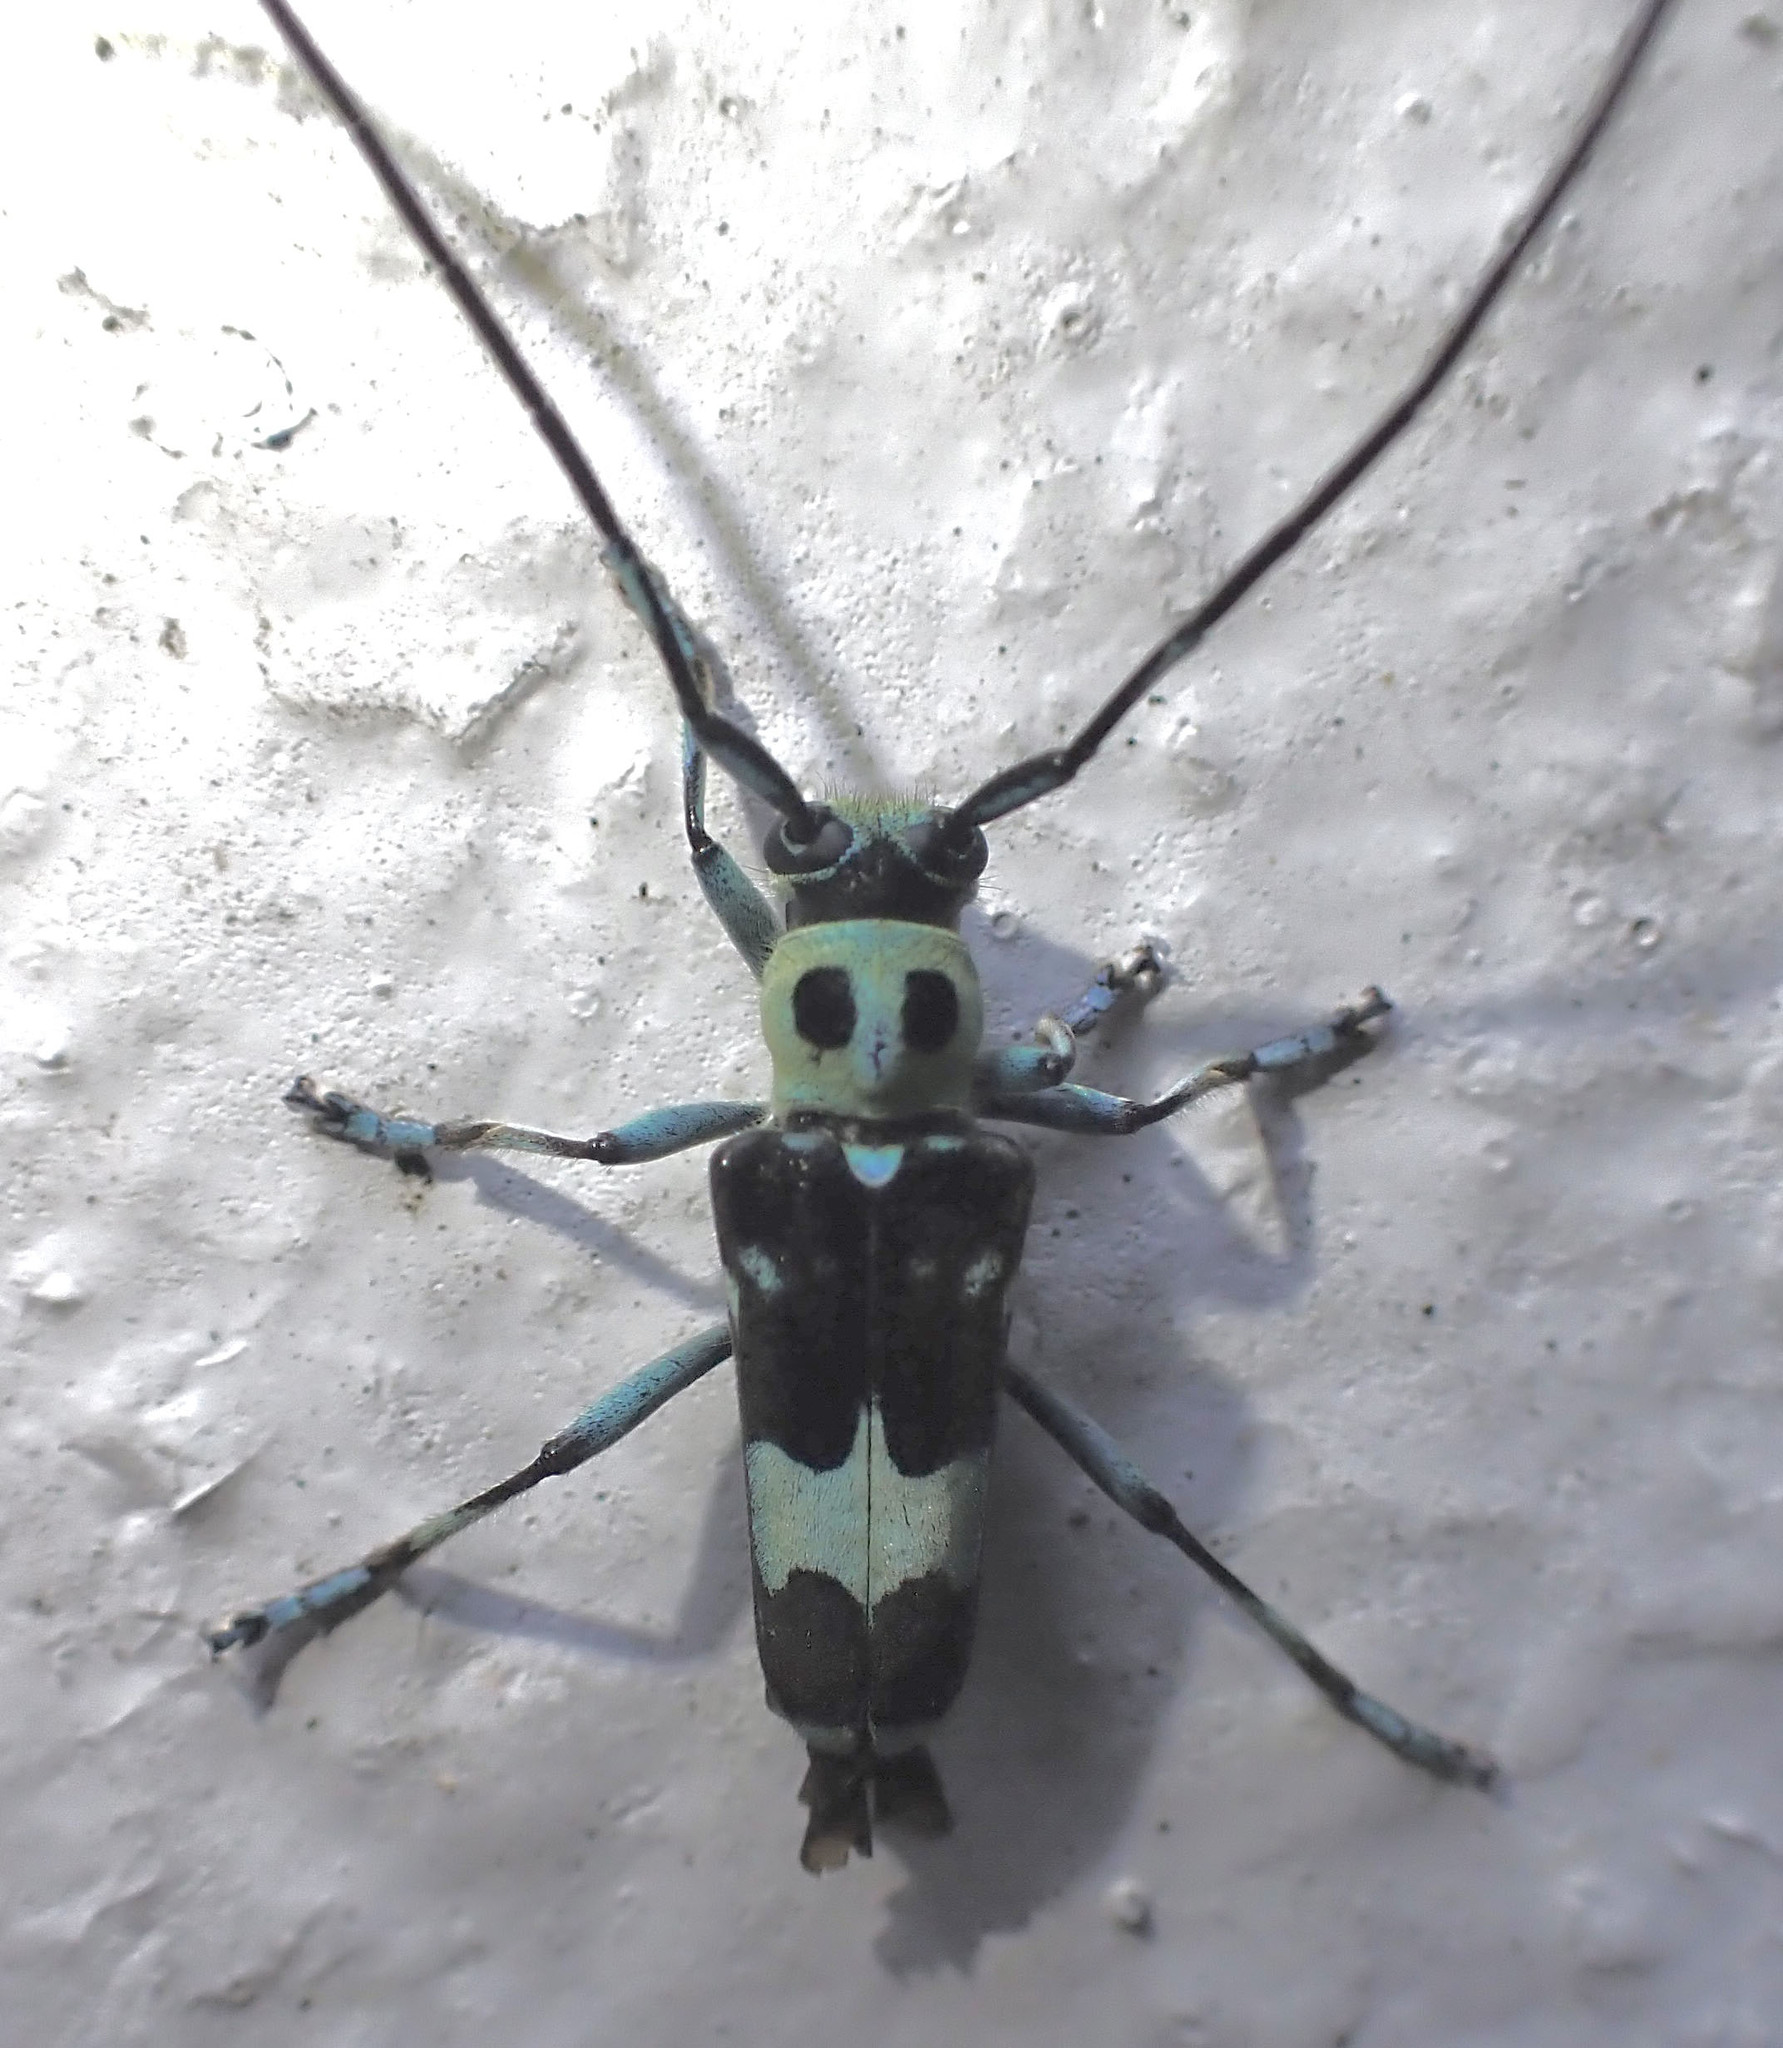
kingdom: Animalia
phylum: Arthropoda
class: Insecta
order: Coleoptera
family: Cerambycidae
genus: Paraglenea
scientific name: Paraglenea fortunei
